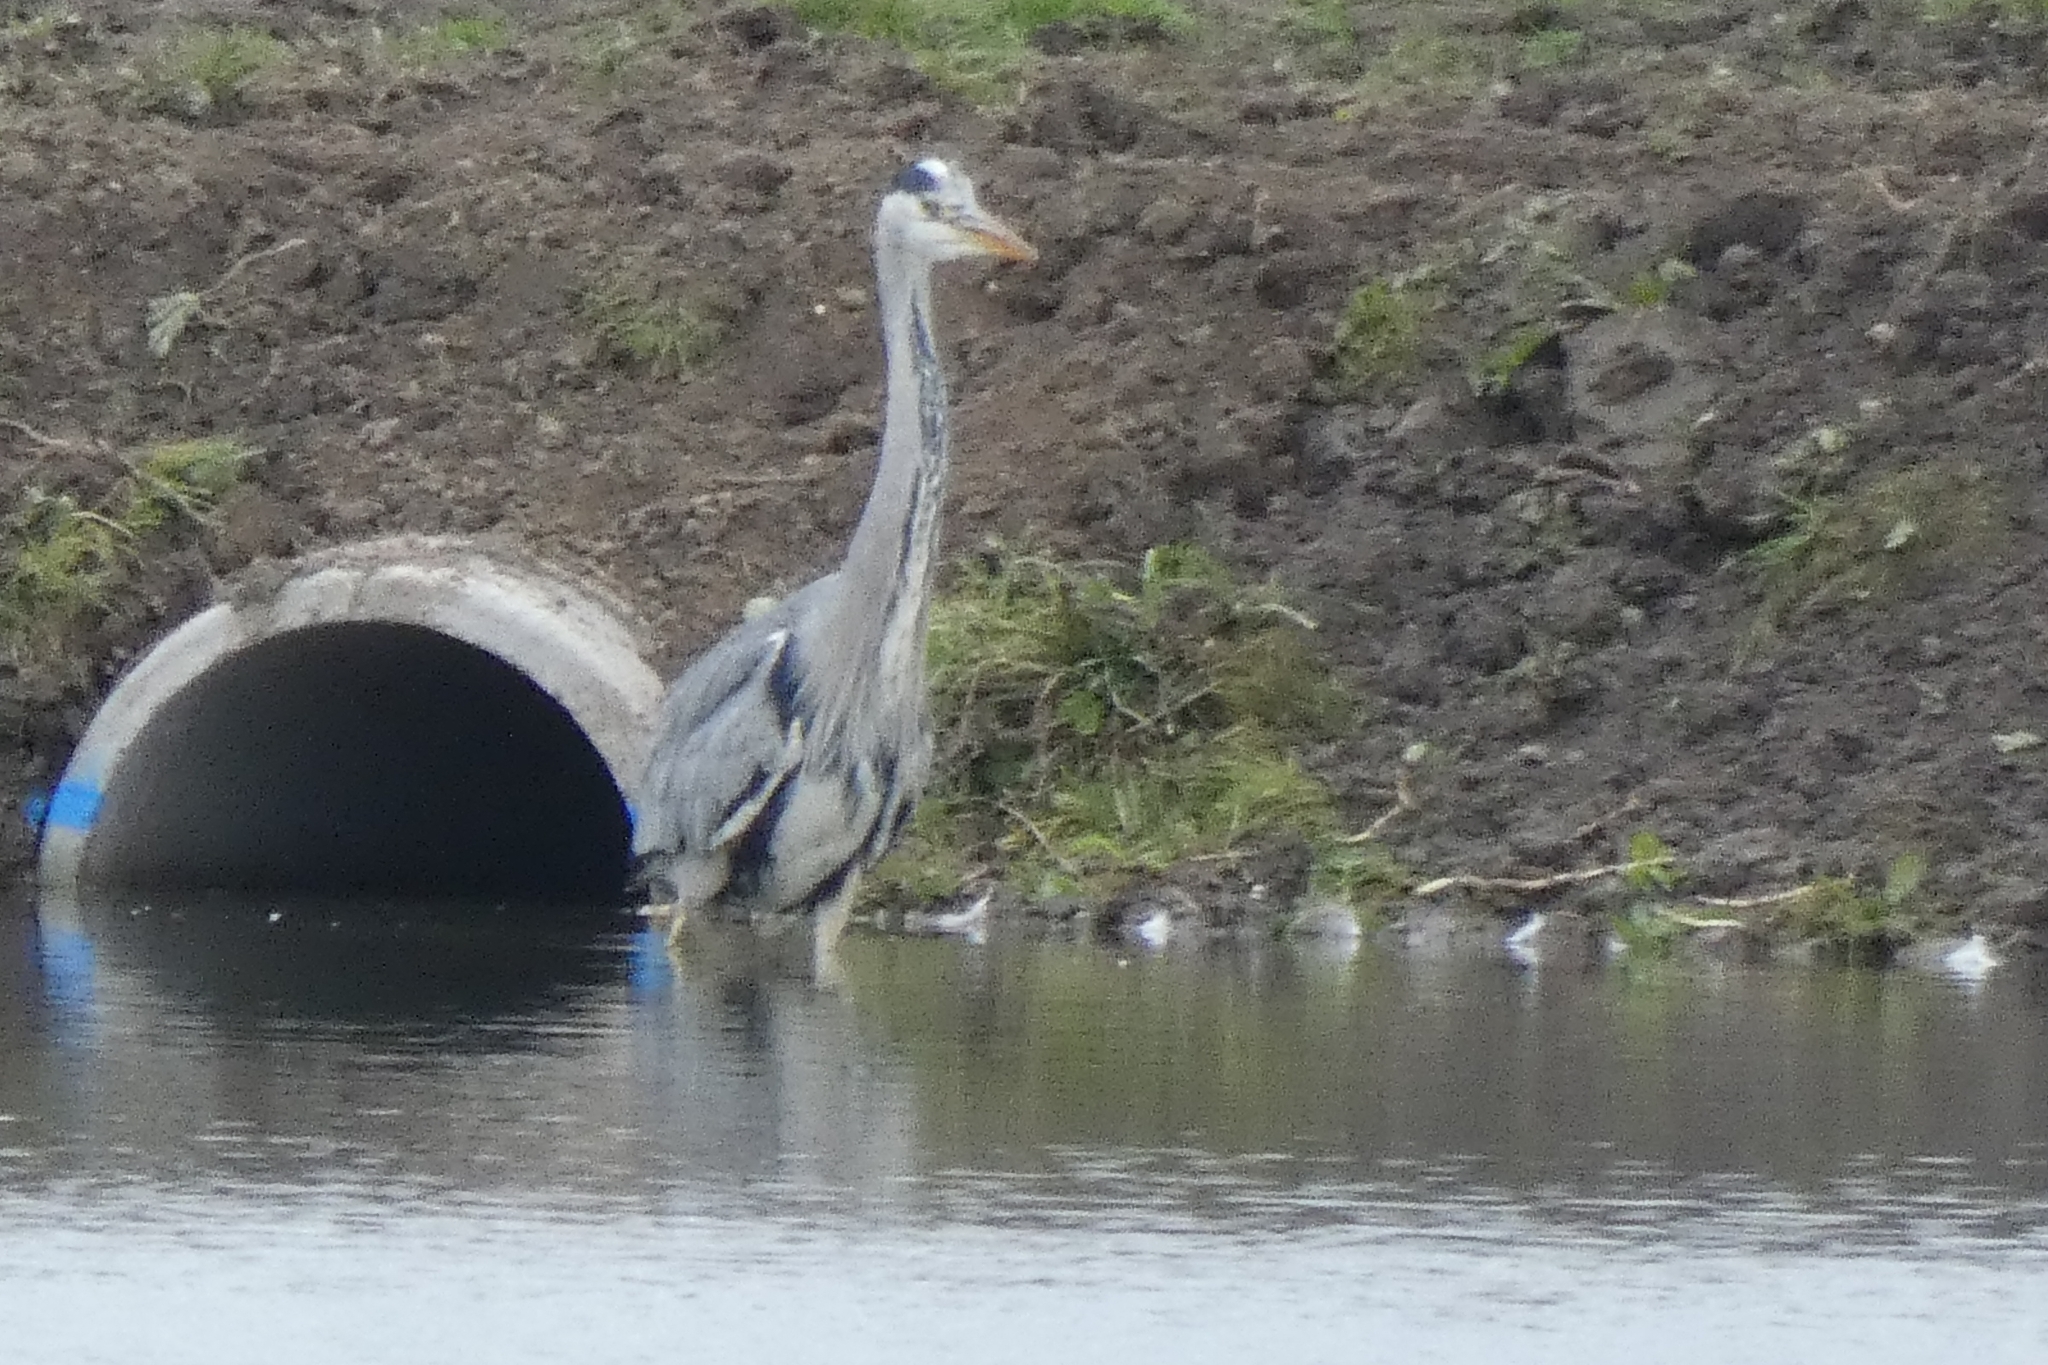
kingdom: Animalia
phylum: Chordata
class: Aves
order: Pelecaniformes
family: Ardeidae
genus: Ardea
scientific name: Ardea cinerea
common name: Grey heron
